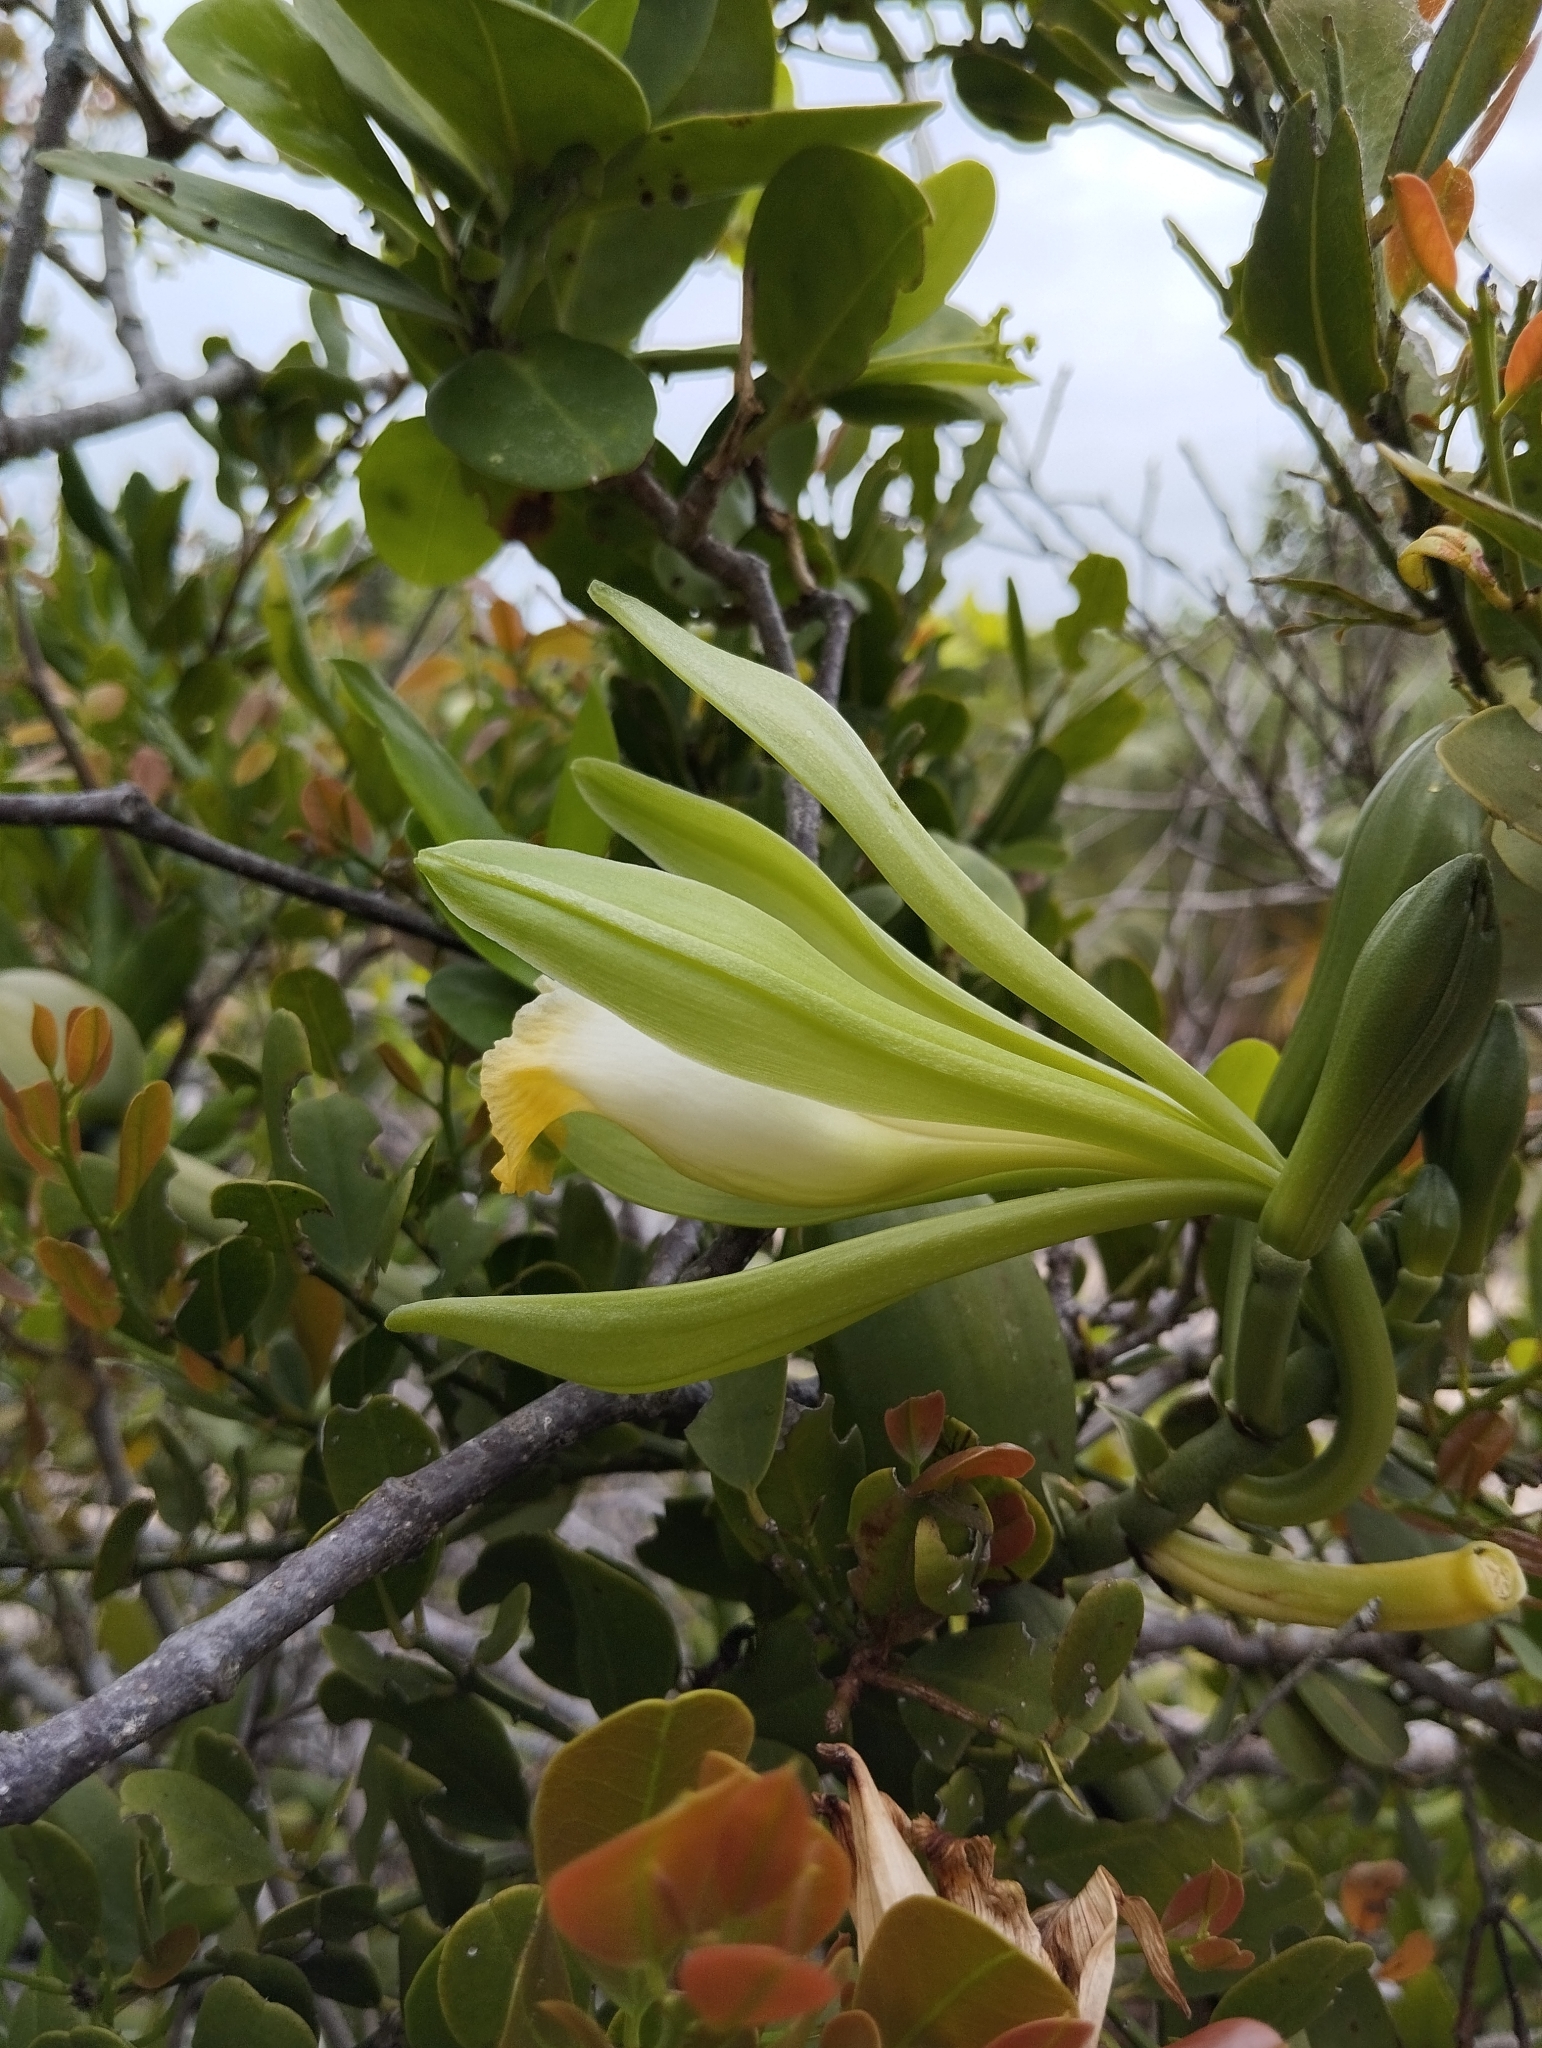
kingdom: Plantae
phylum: Tracheophyta
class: Liliopsida
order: Asparagales
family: Orchidaceae
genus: Vanilla
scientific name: Vanilla phaeantha
